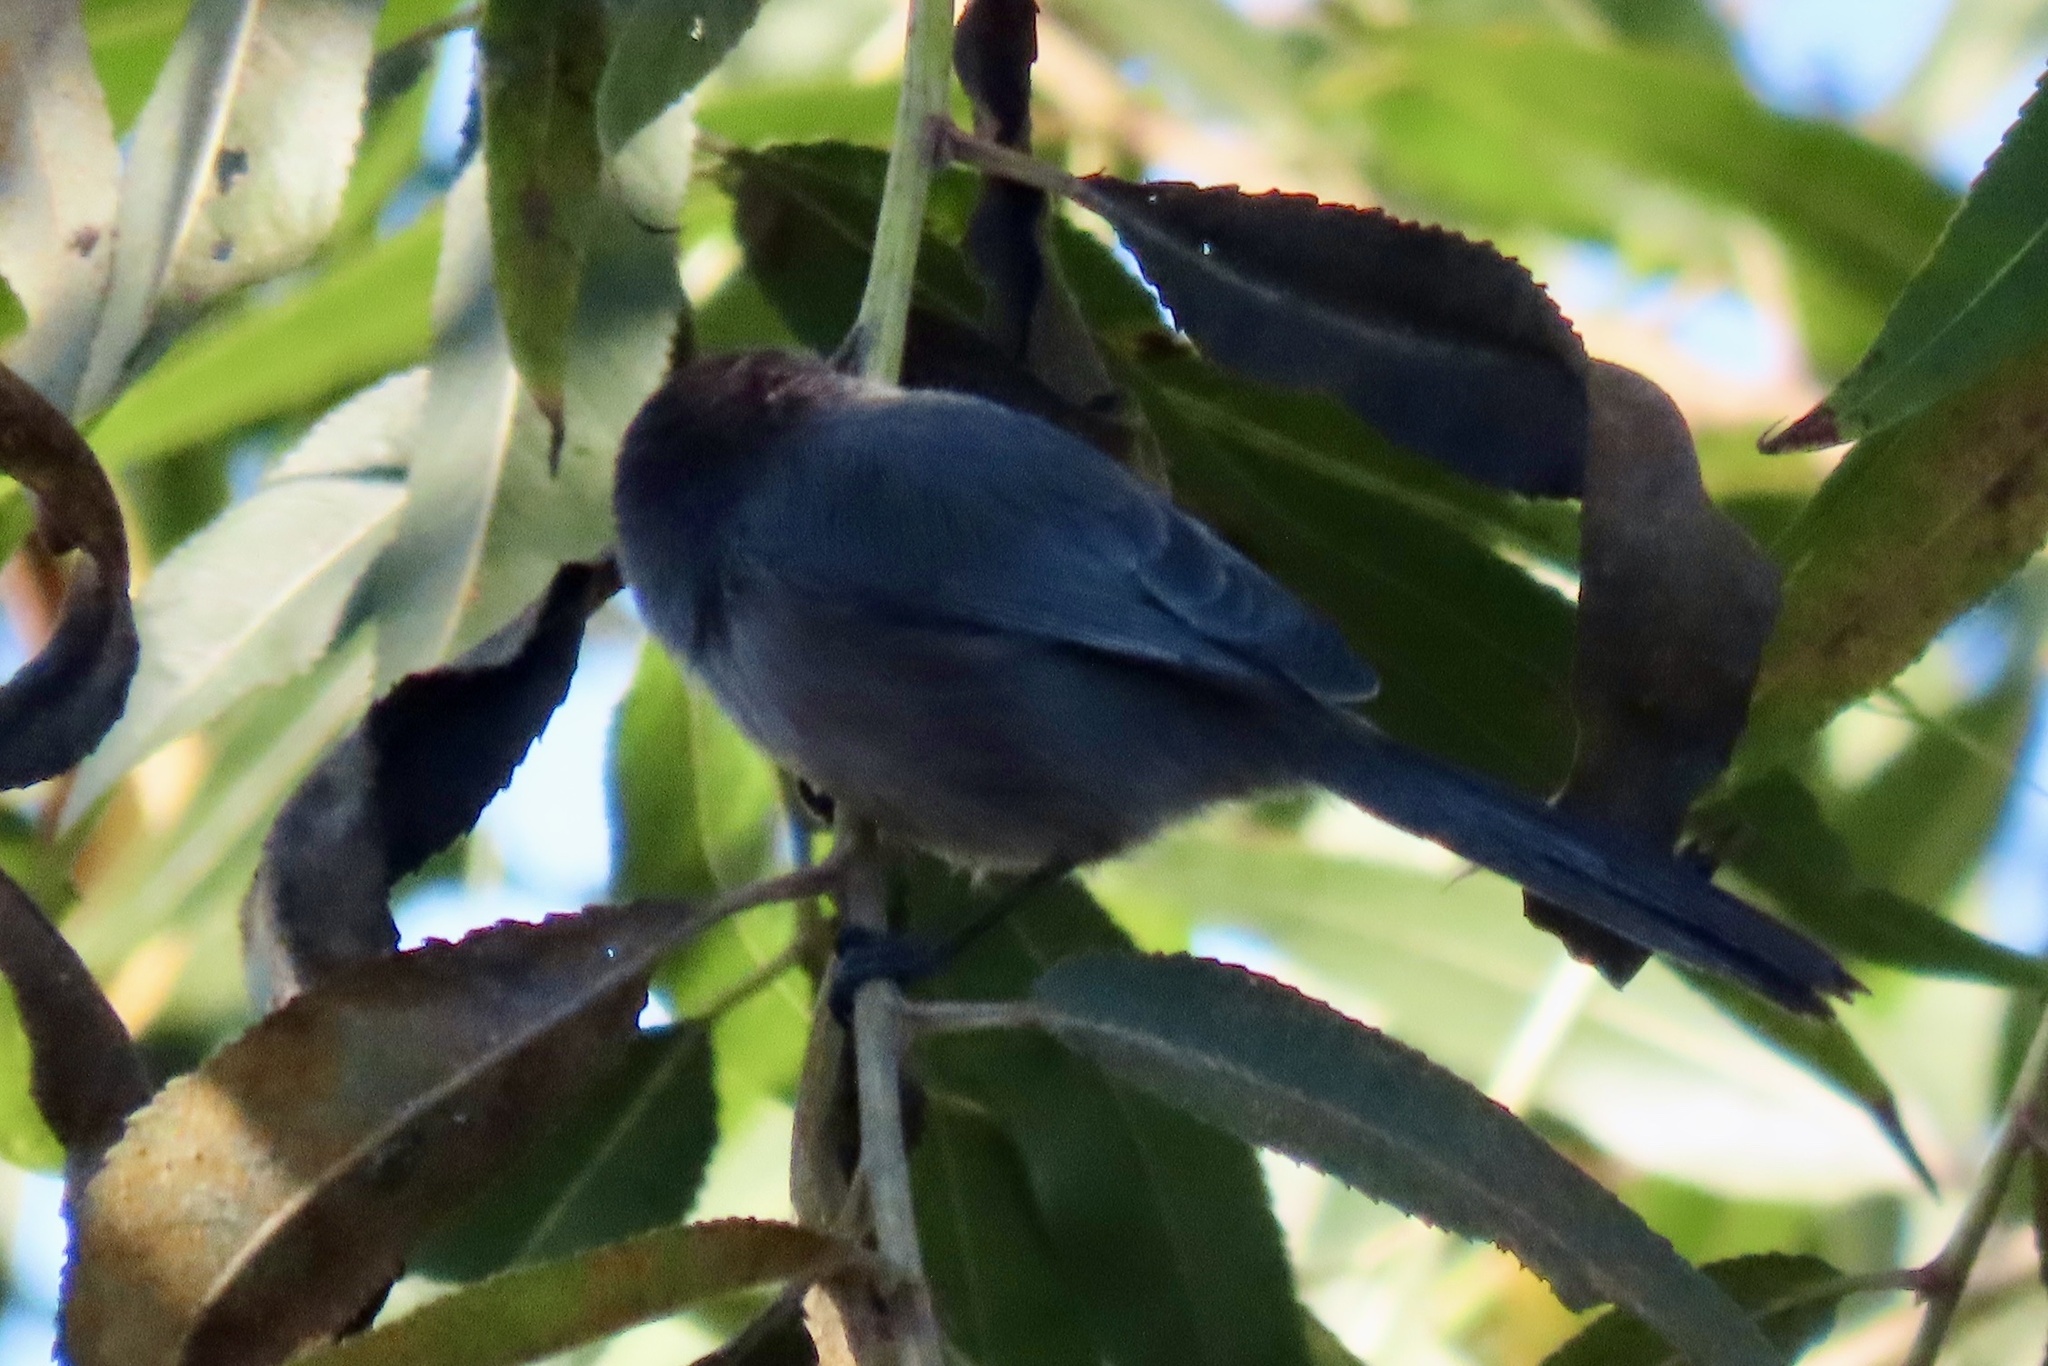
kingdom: Animalia
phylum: Chordata
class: Aves
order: Passeriformes
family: Aegithalidae
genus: Psaltriparus
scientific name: Psaltriparus minimus
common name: American bushtit
